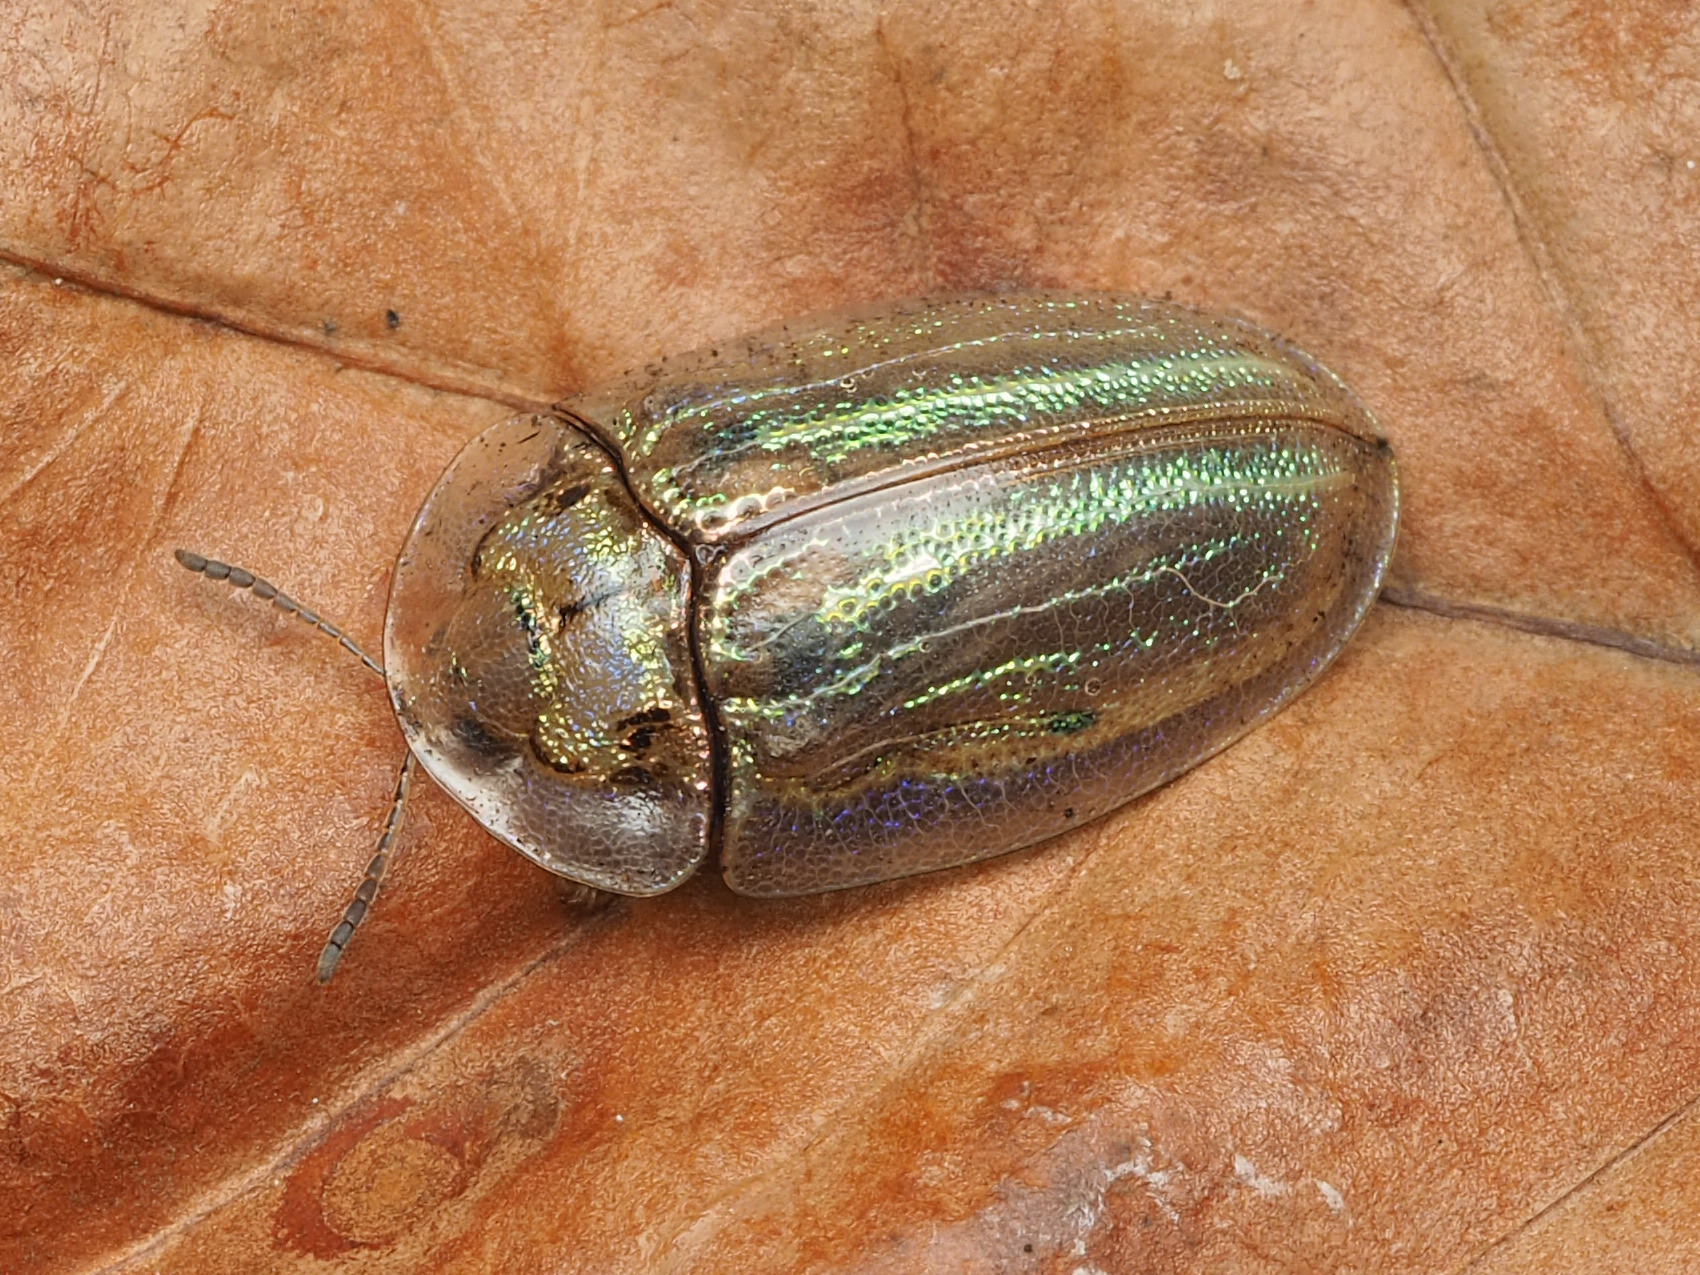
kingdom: Animalia
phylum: Arthropoda
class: Insecta
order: Coleoptera
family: Chrysomelidae
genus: Physonota
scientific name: Physonota stigmatilis
